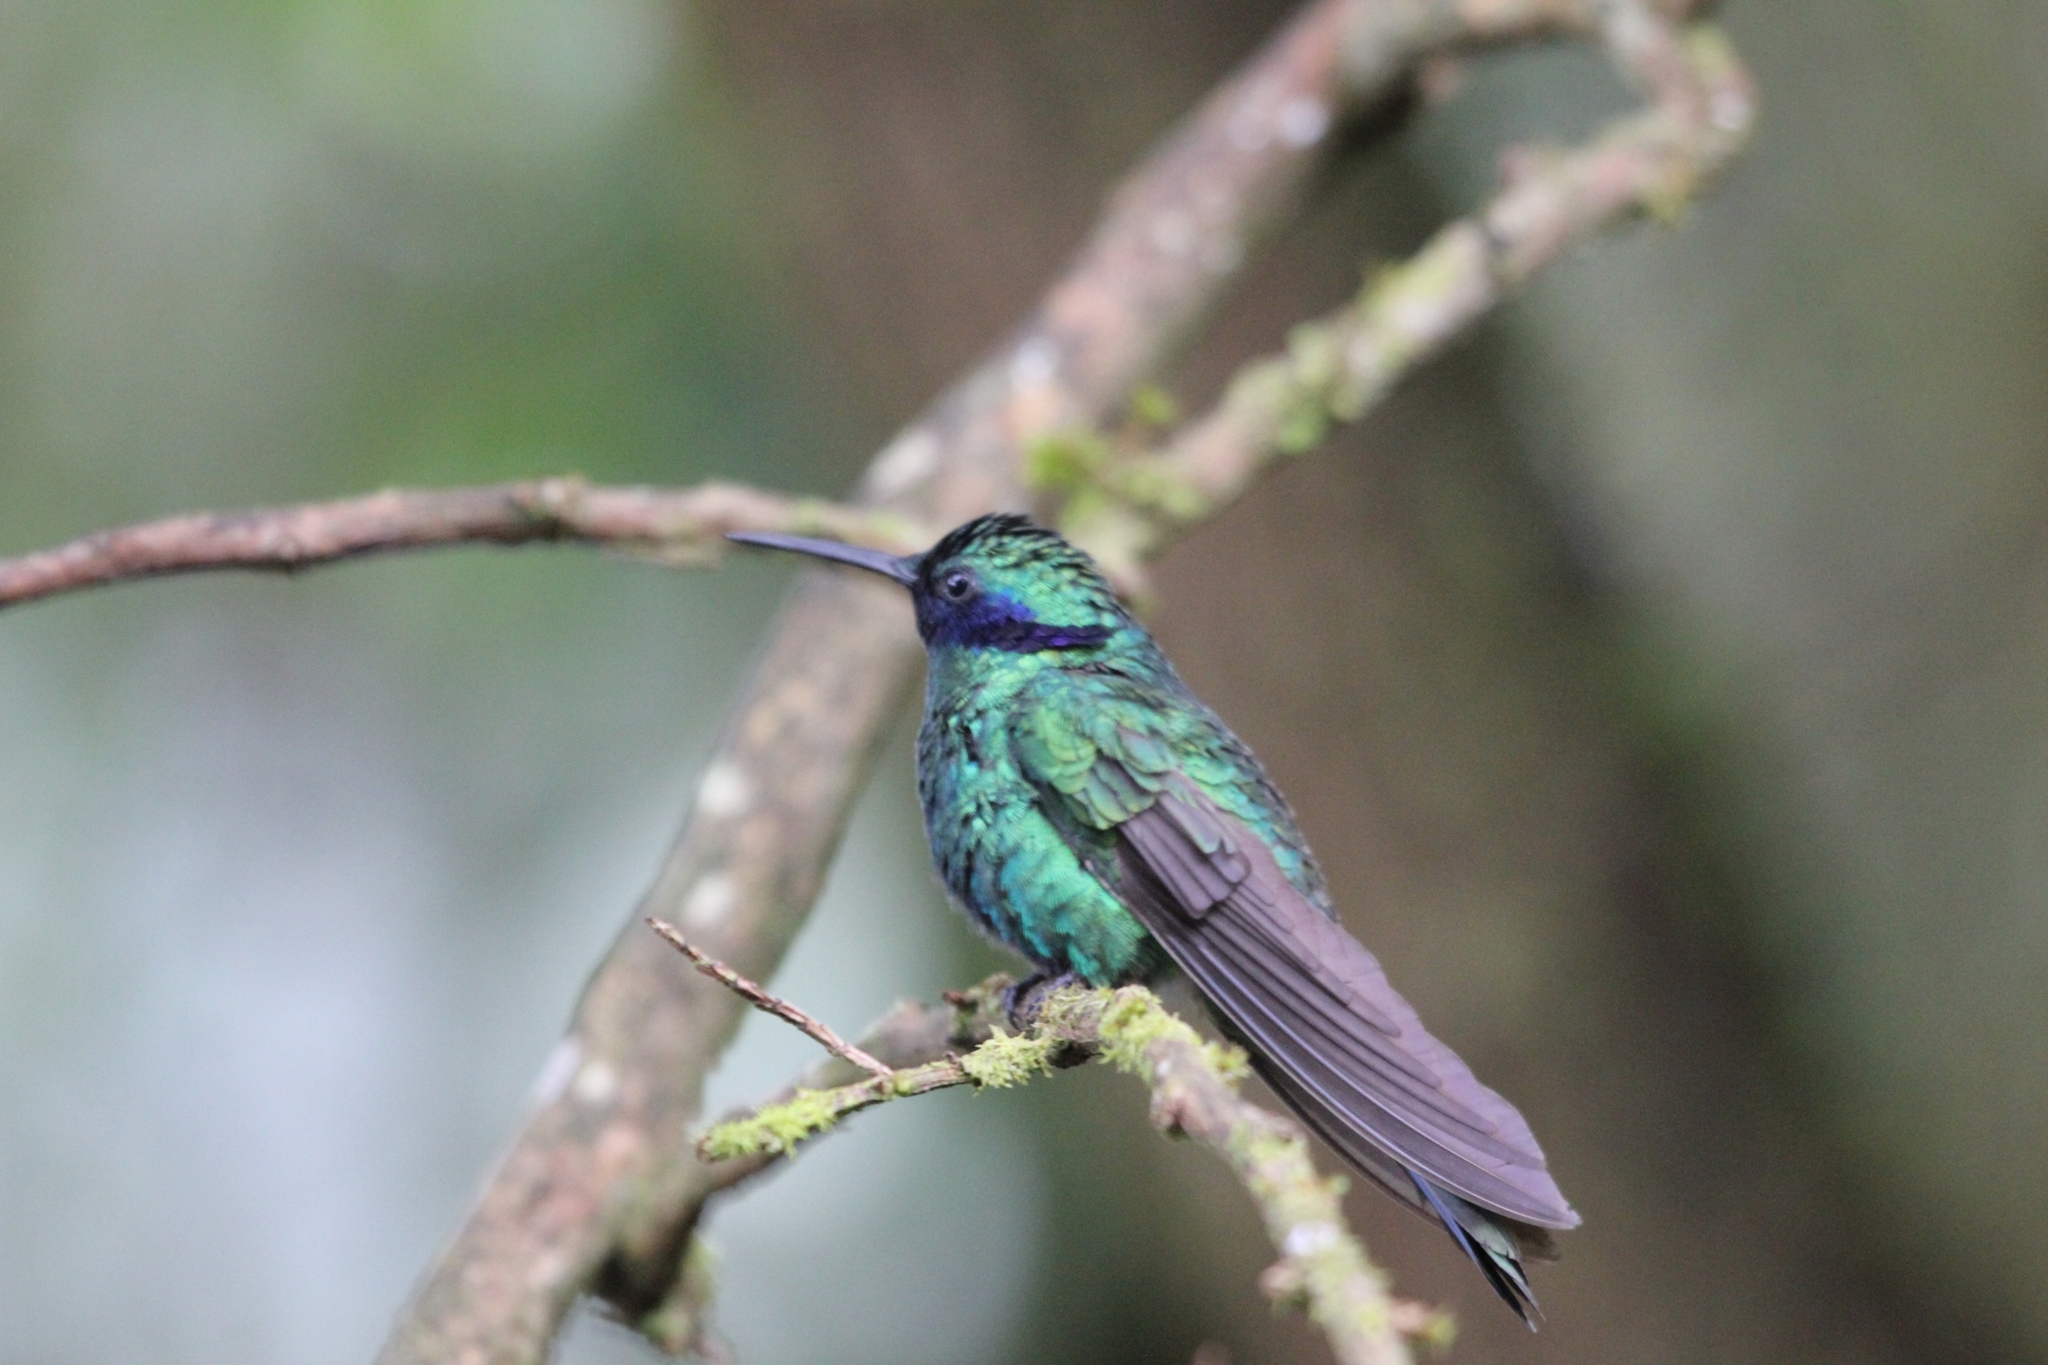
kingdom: Animalia
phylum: Chordata
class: Aves
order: Apodiformes
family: Trochilidae
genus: Colibri
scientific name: Colibri coruscans
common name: Sparkling violetear
